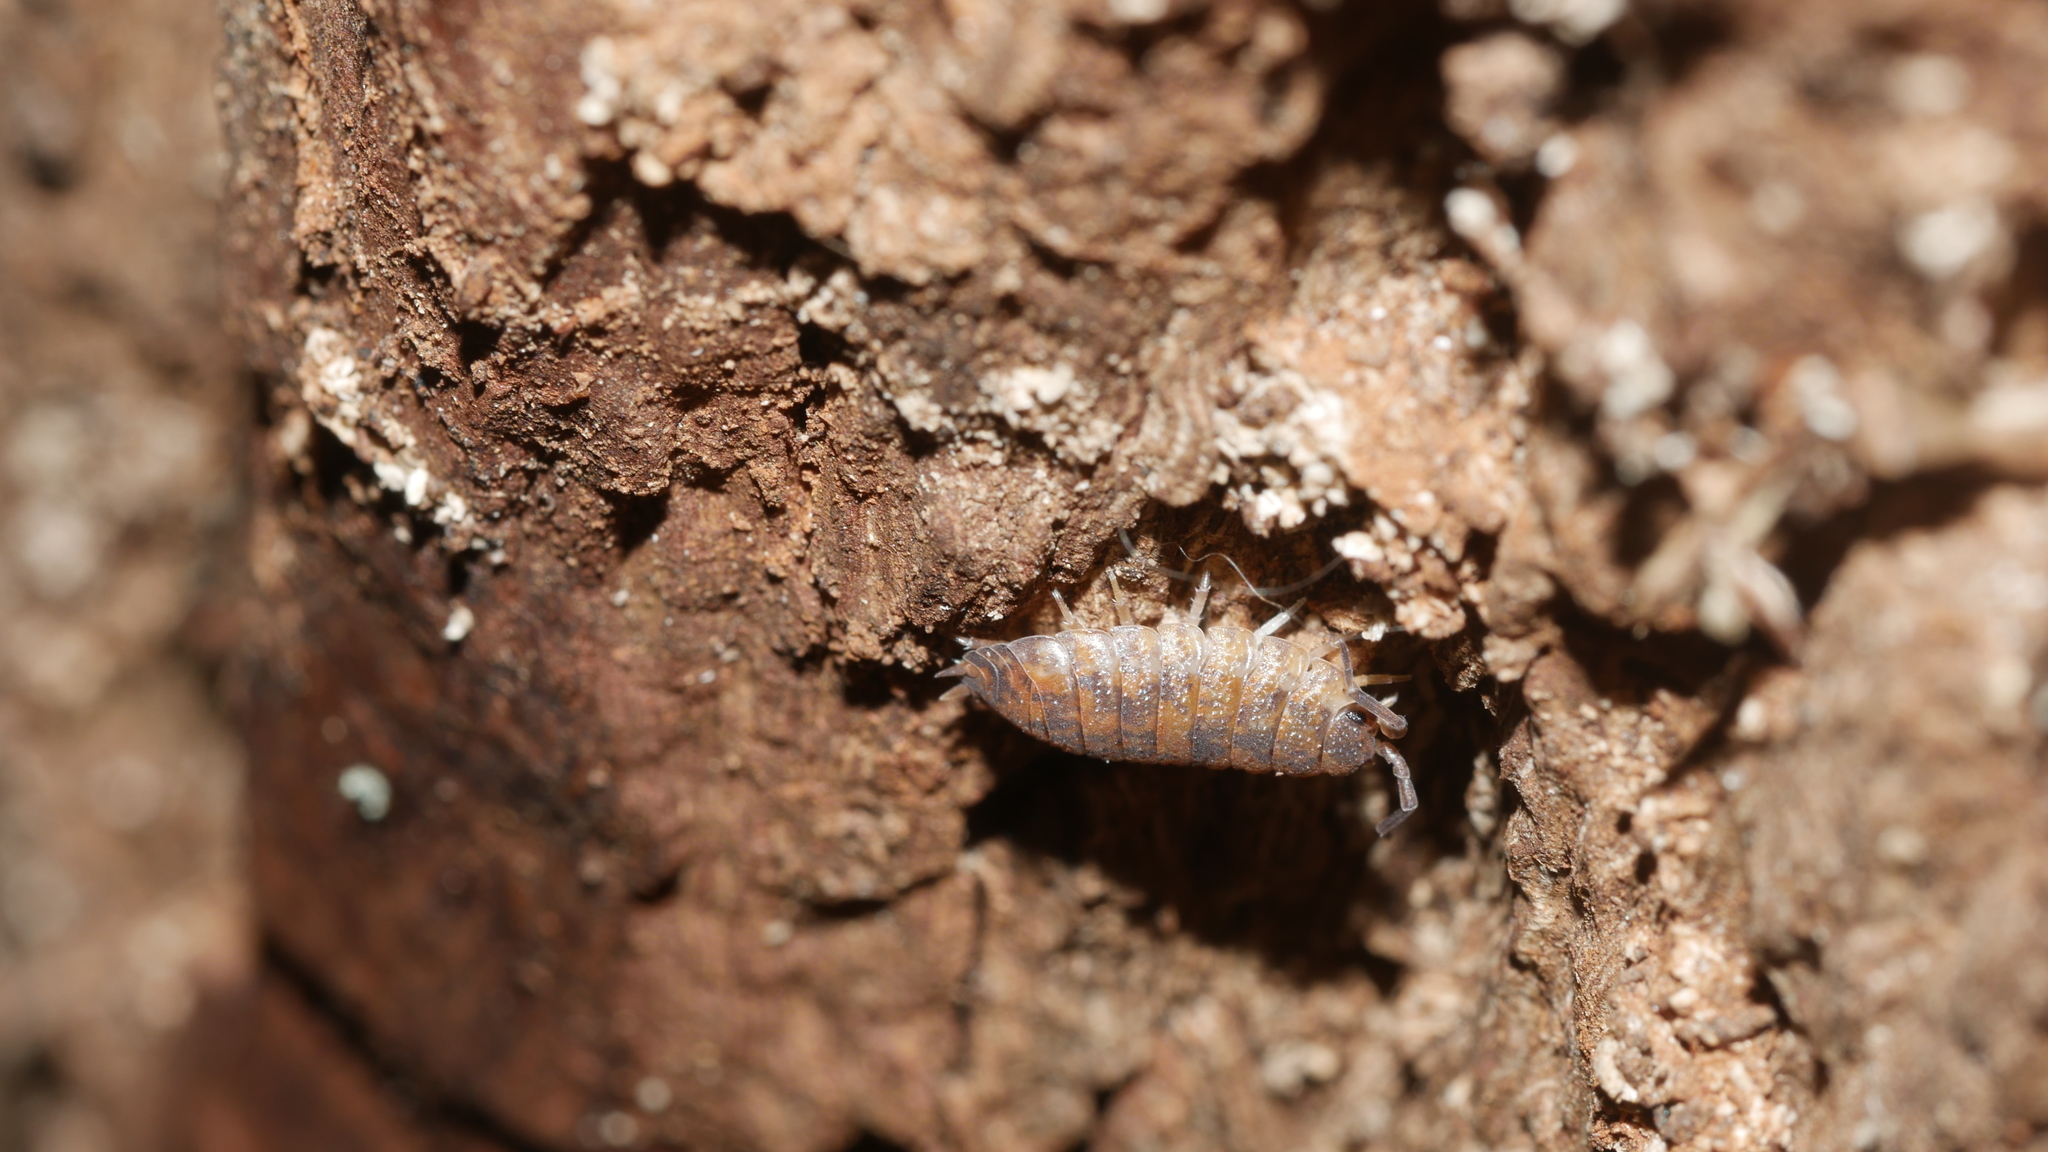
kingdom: Animalia
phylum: Arthropoda
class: Malacostraca
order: Isopoda
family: Porcellionidae
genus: Porcellio
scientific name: Porcellio scaber
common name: Common rough woodlouse
